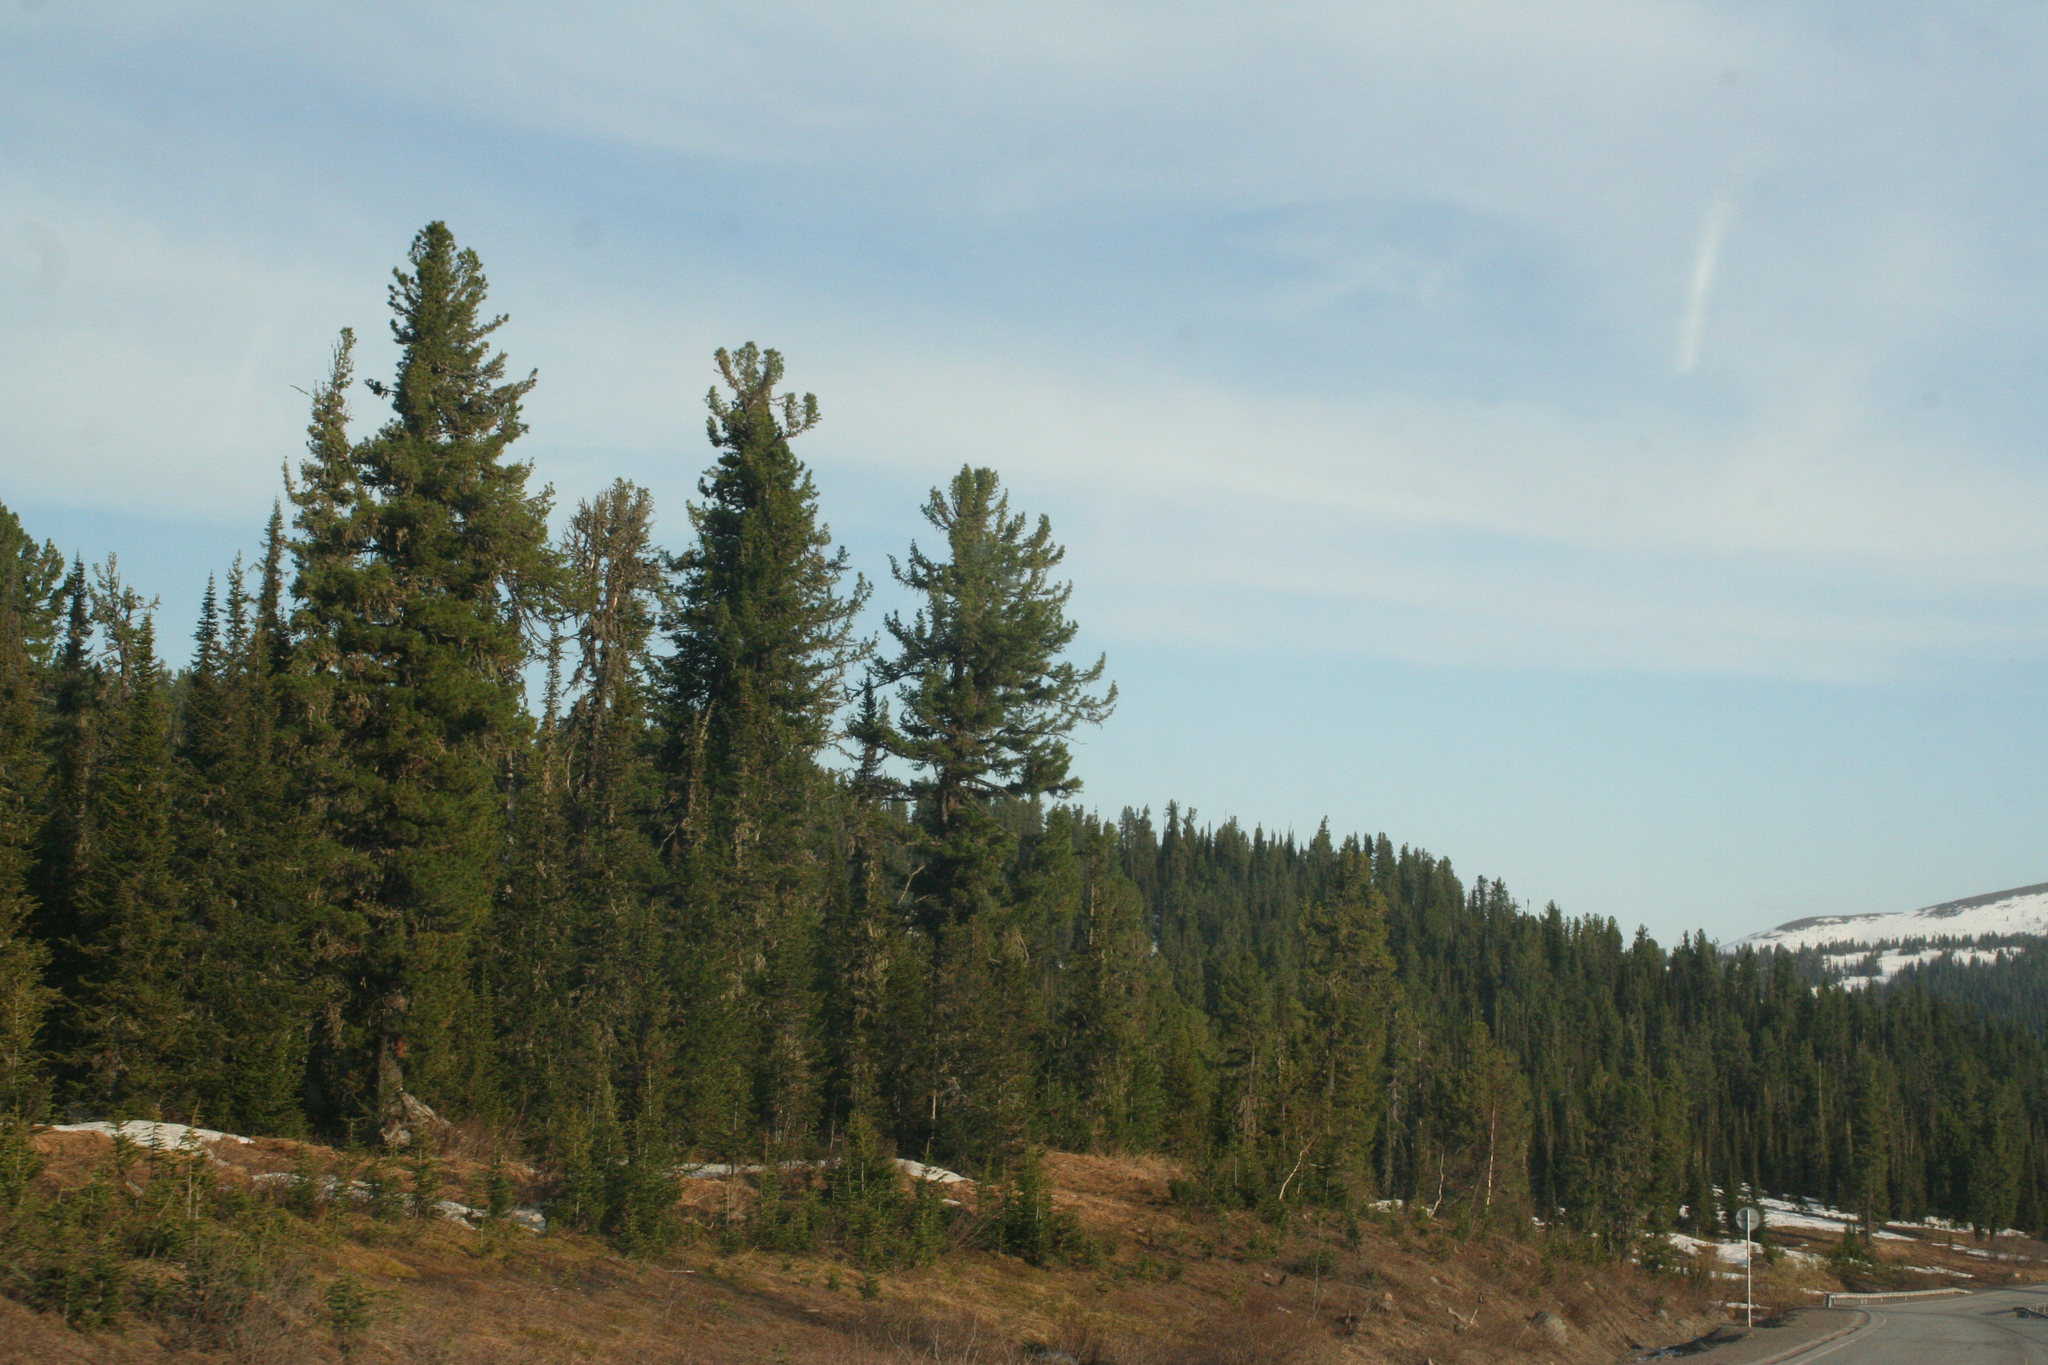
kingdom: Plantae
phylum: Tracheophyta
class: Pinopsida
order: Pinales
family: Pinaceae
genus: Pinus
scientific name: Pinus sibirica
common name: Siberian pine
